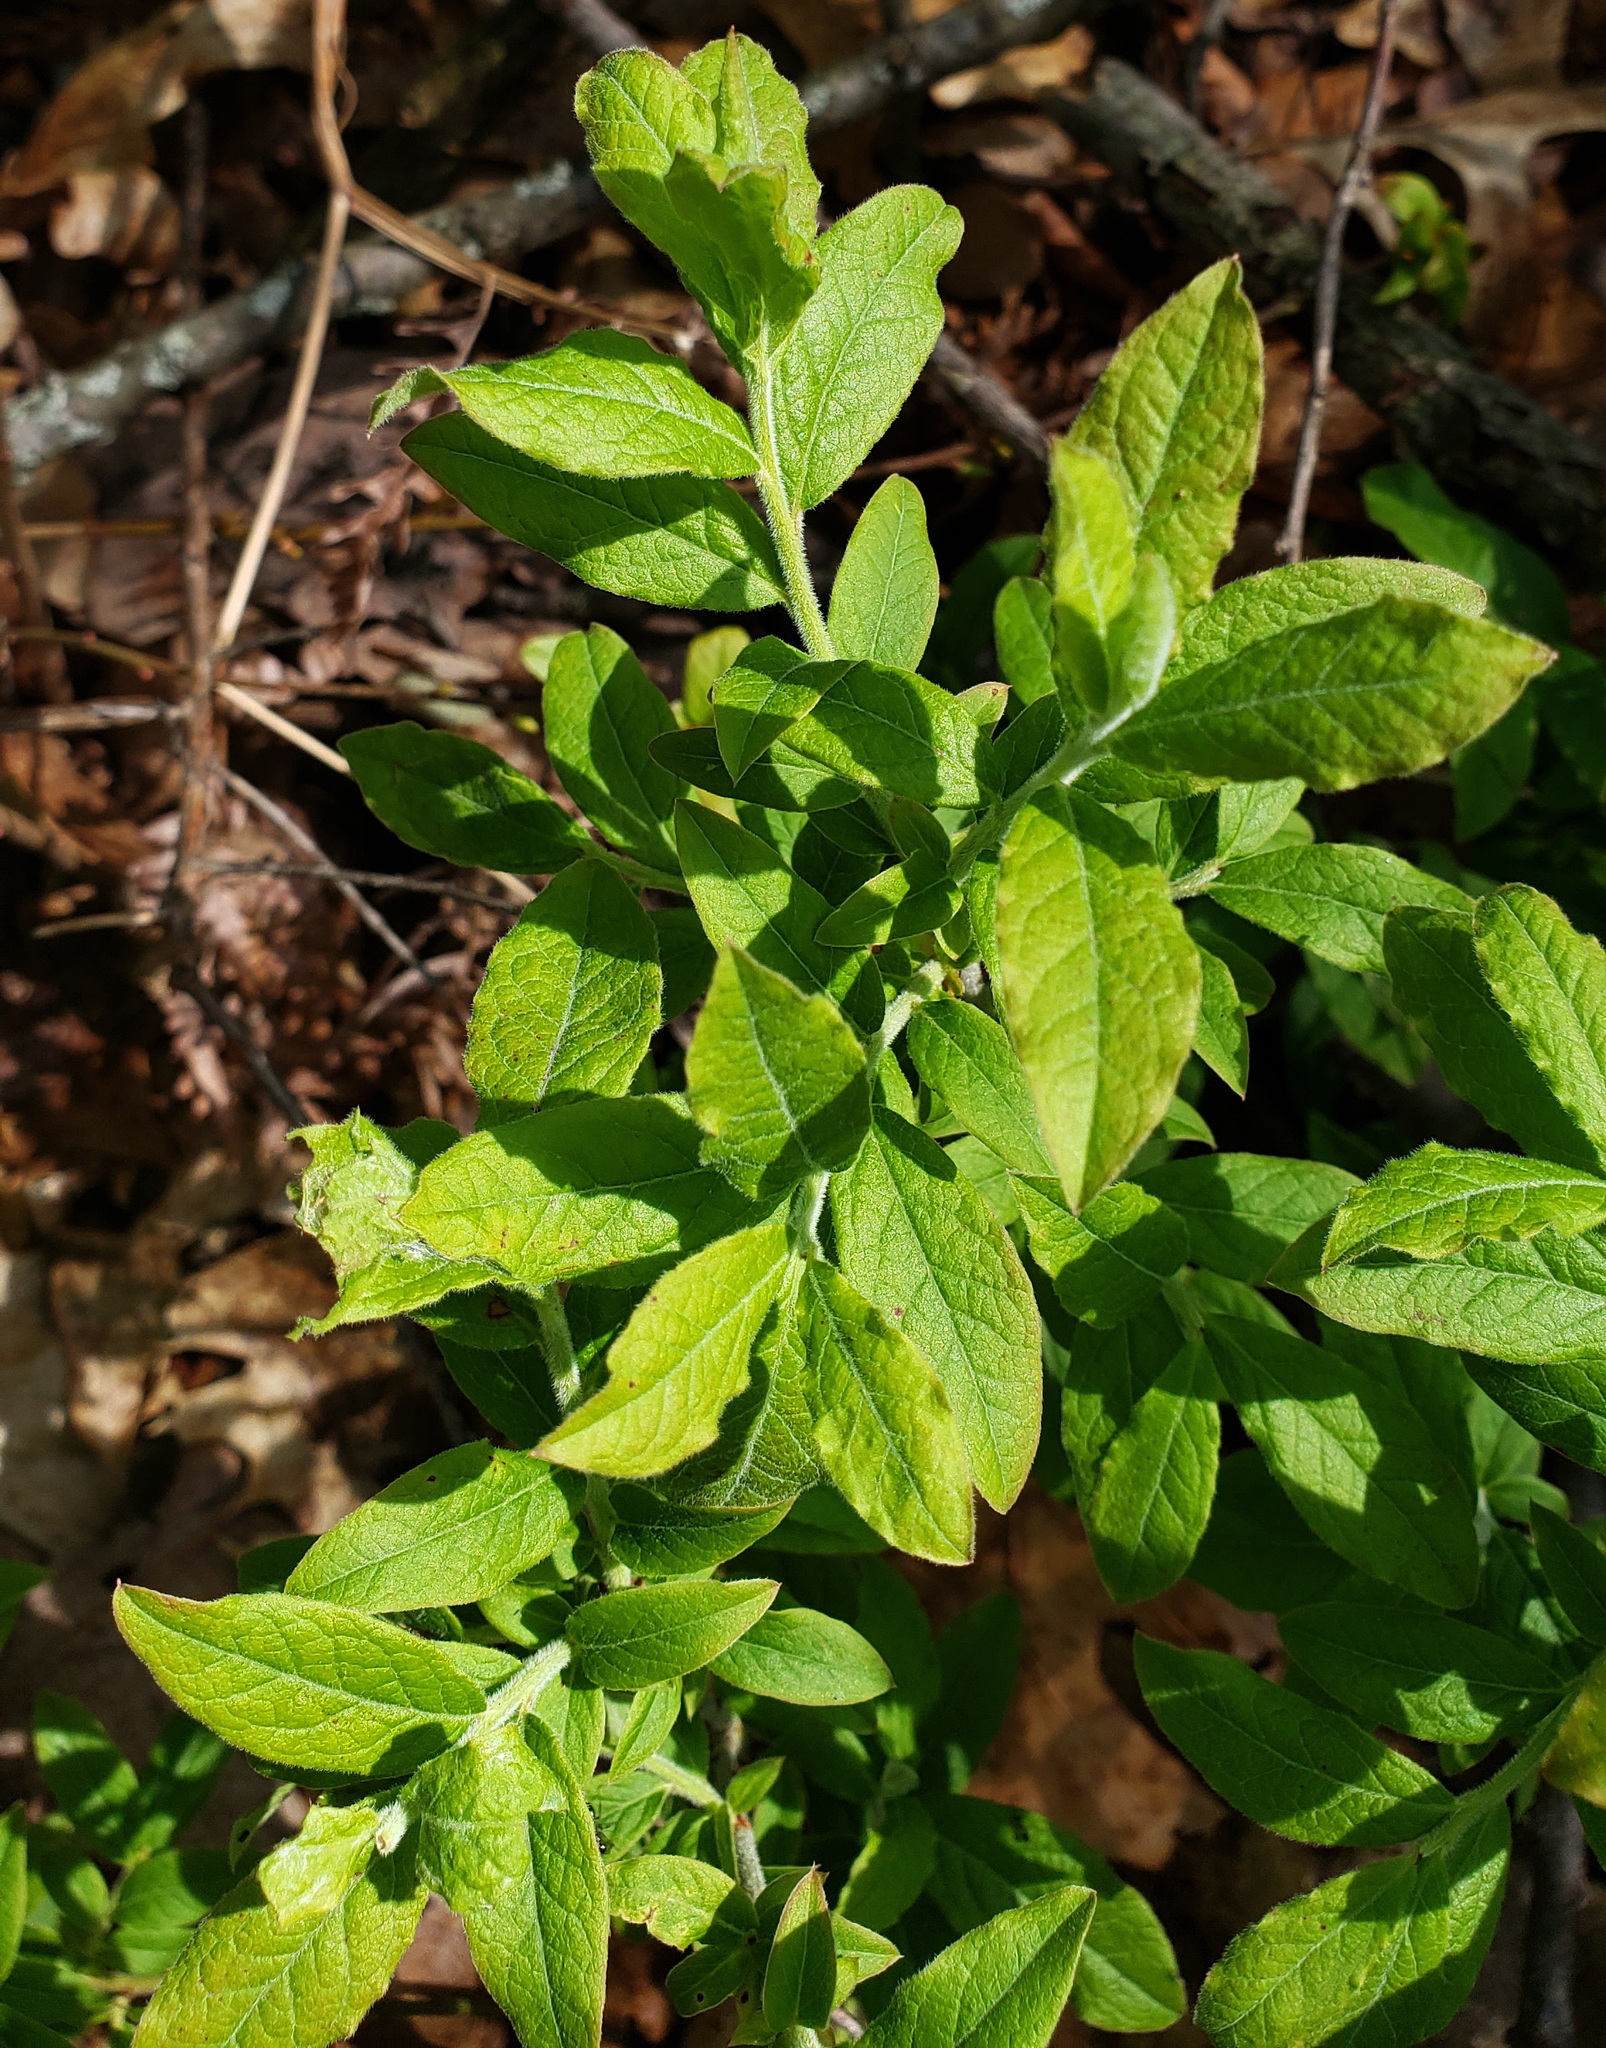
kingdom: Plantae
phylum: Tracheophyta
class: Magnoliopsida
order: Ericales
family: Ericaceae
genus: Vaccinium
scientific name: Vaccinium myrtilloides
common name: Canada blueberry
